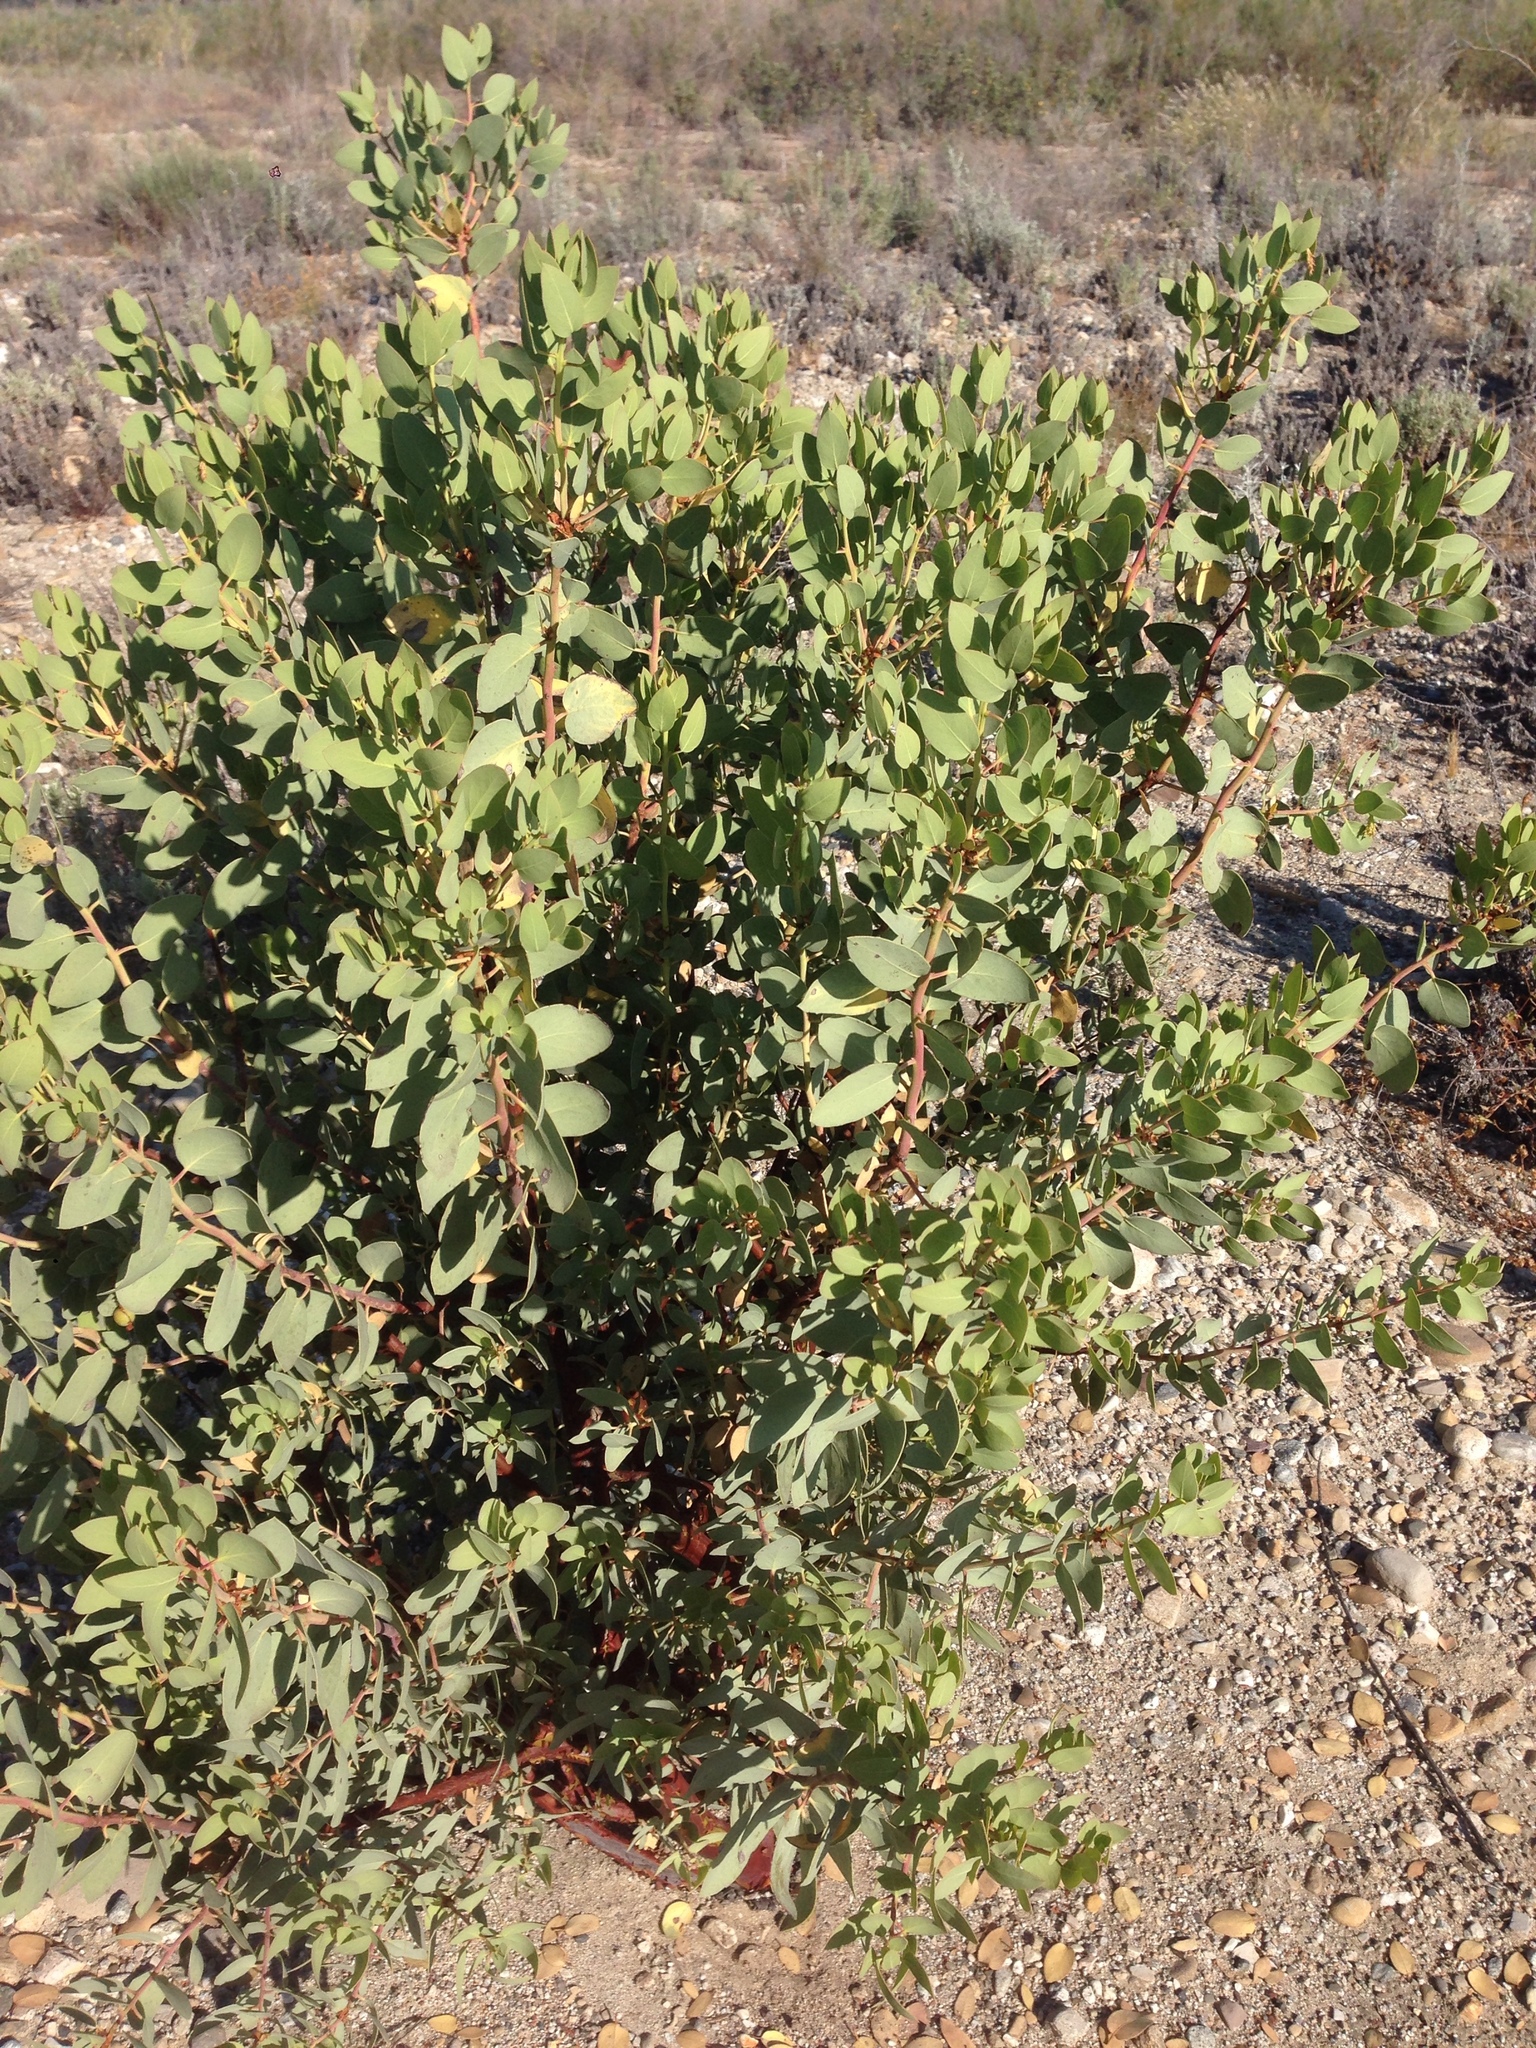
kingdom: Plantae
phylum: Tracheophyta
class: Magnoliopsida
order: Ericales
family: Ericaceae
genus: Arctostaphylos
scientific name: Arctostaphylos glauca
